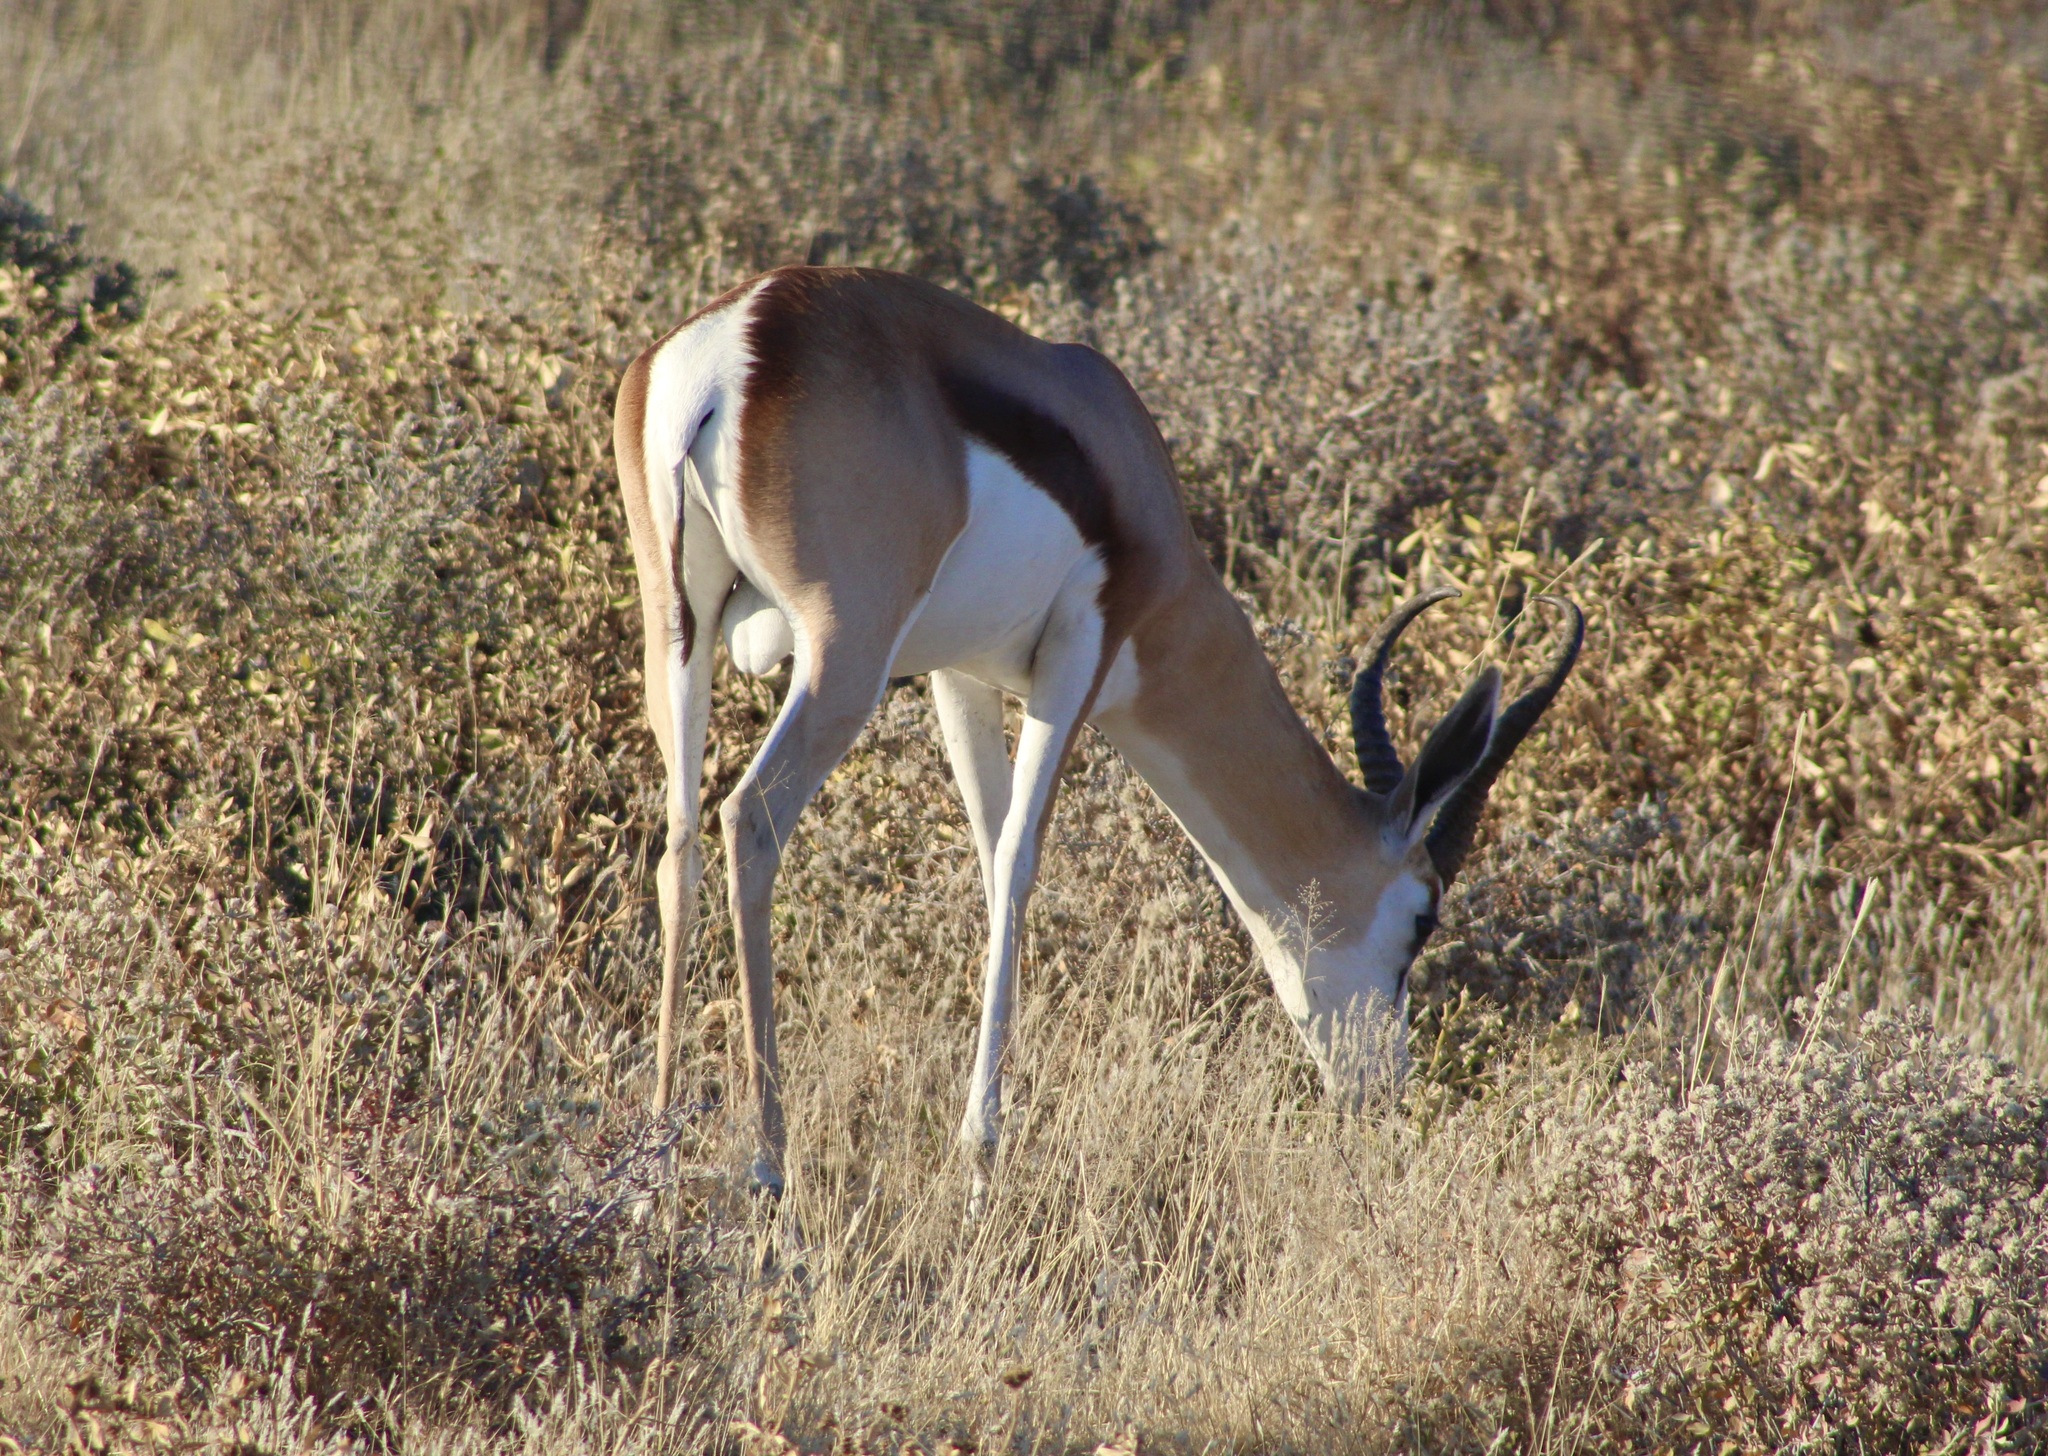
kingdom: Animalia
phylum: Chordata
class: Mammalia
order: Artiodactyla
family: Bovidae
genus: Antidorcas
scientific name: Antidorcas marsupialis
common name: Springbok
